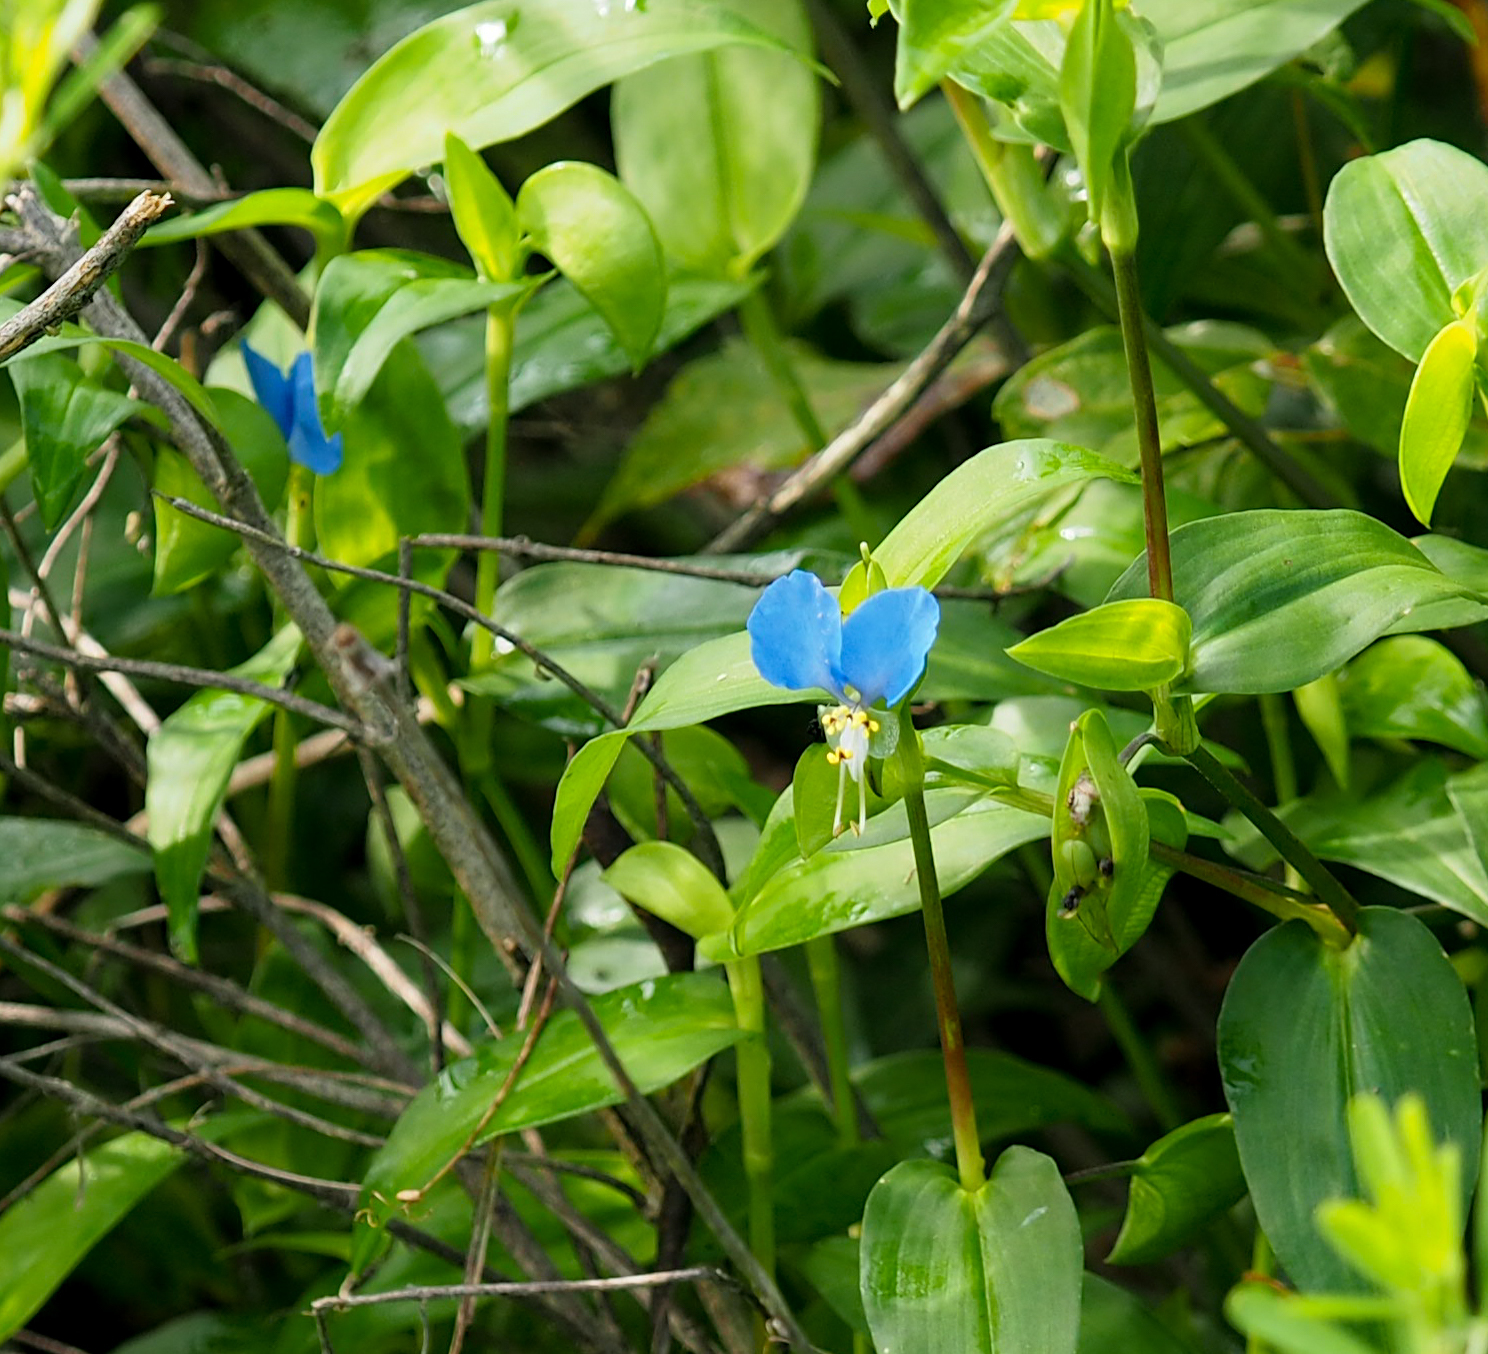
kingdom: Plantae
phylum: Tracheophyta
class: Liliopsida
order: Commelinales
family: Commelinaceae
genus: Commelina
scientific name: Commelina communis
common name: Asiatic dayflower
